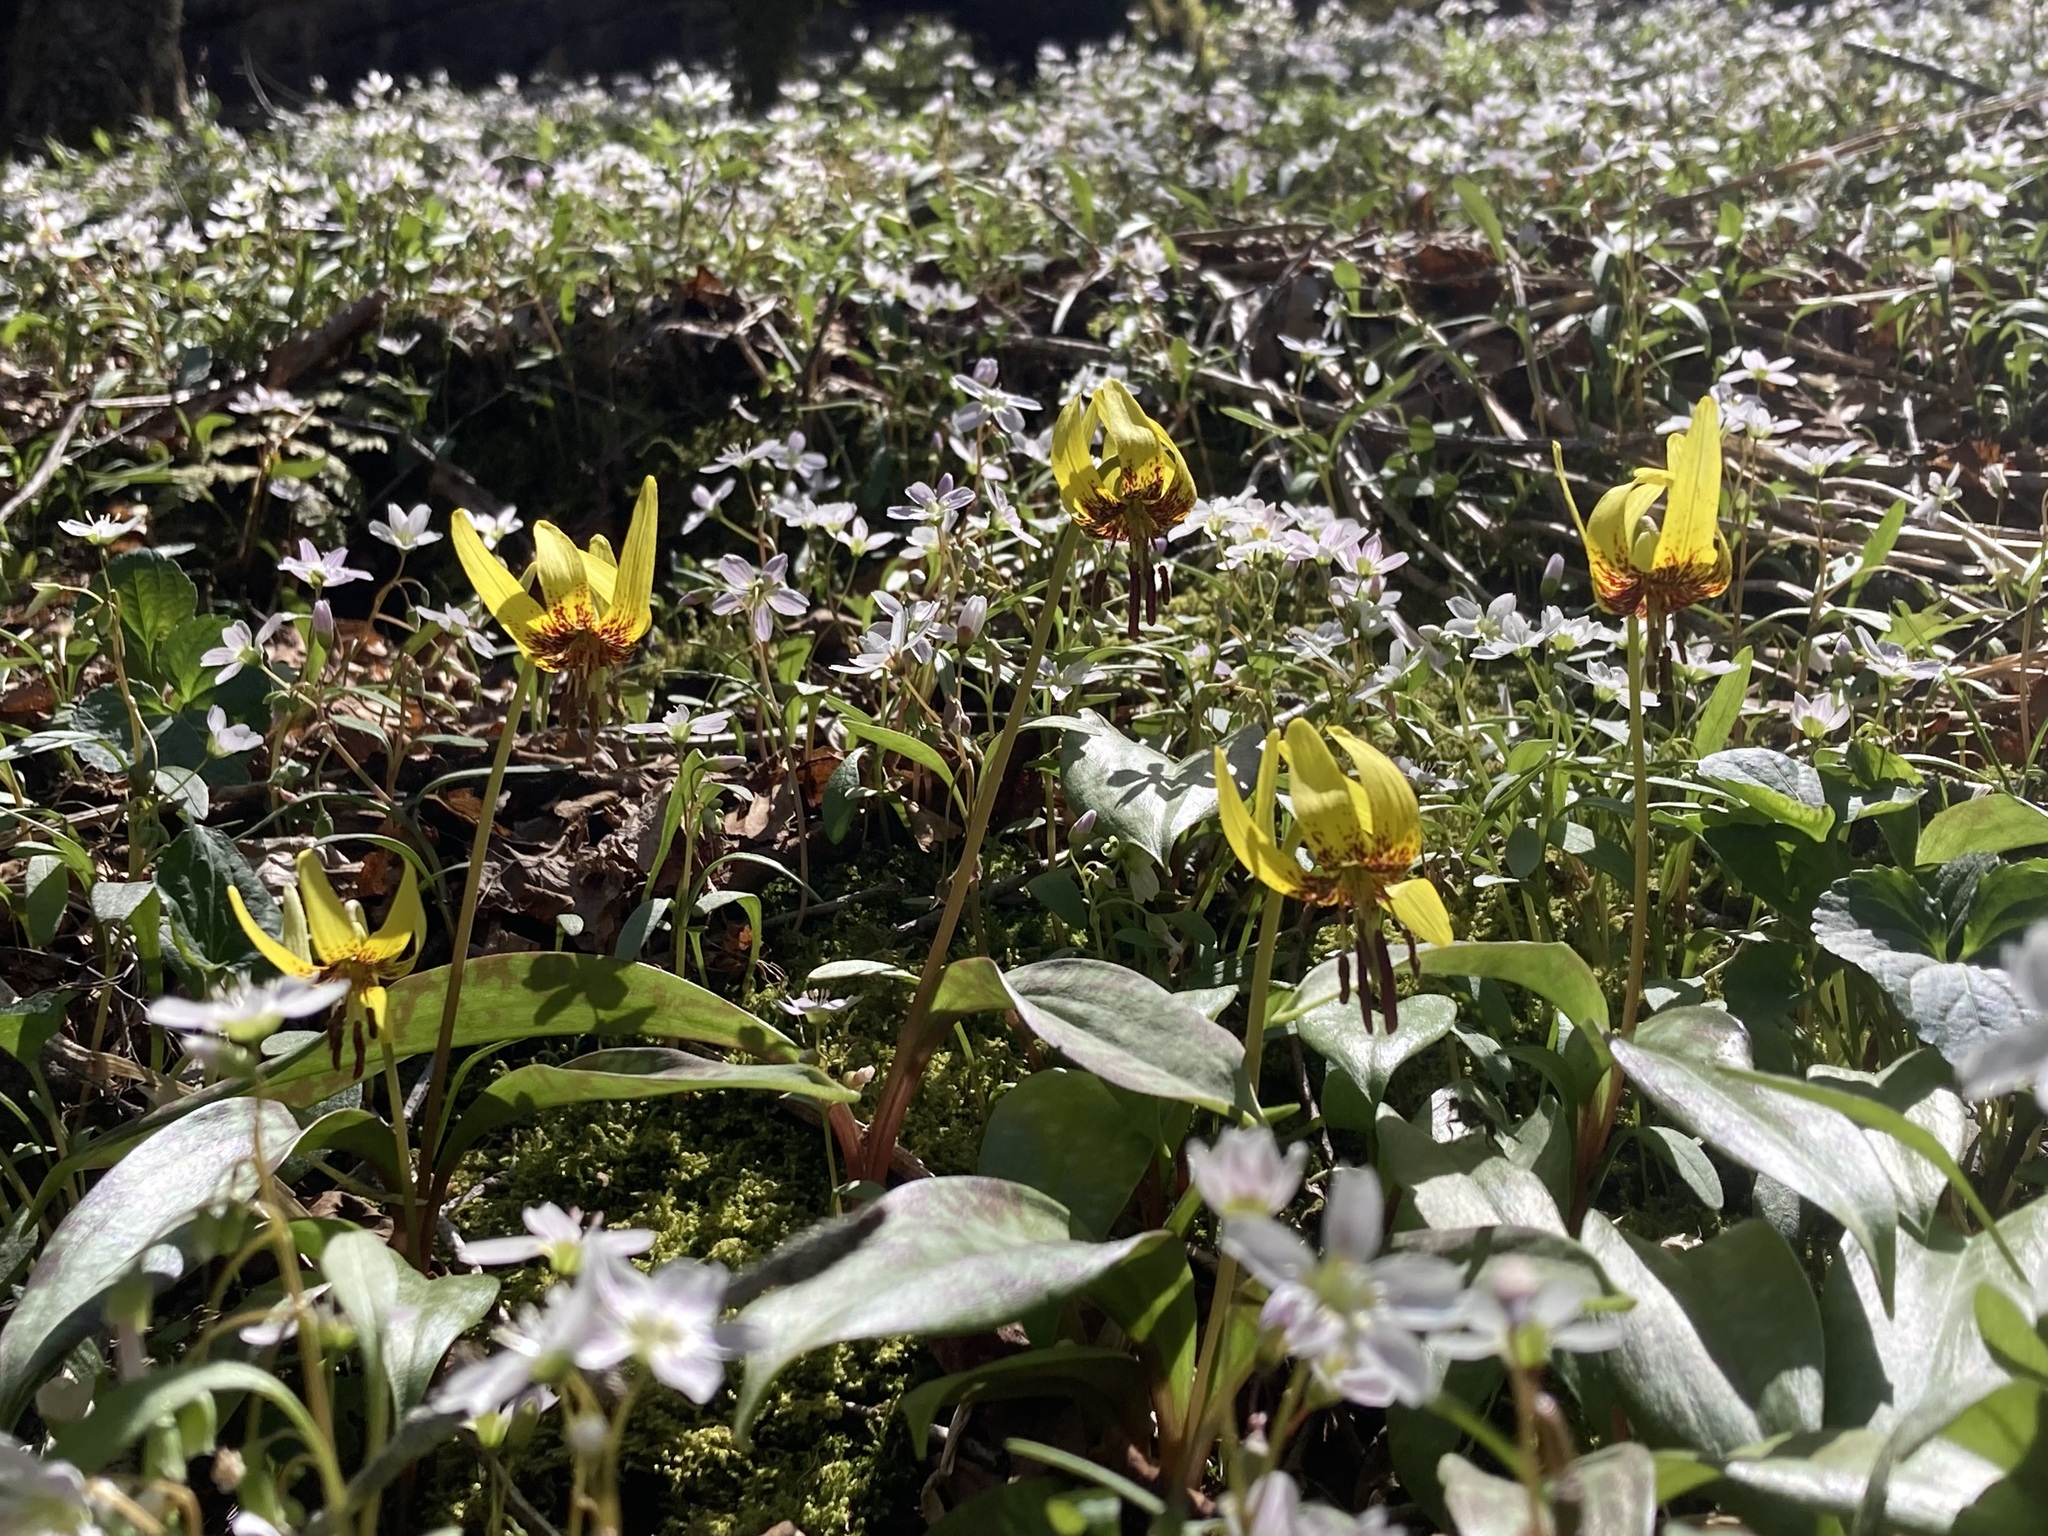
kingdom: Plantae
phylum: Tracheophyta
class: Liliopsida
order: Liliales
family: Liliaceae
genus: Erythronium
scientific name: Erythronium americanum
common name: Yellow adder's-tongue
